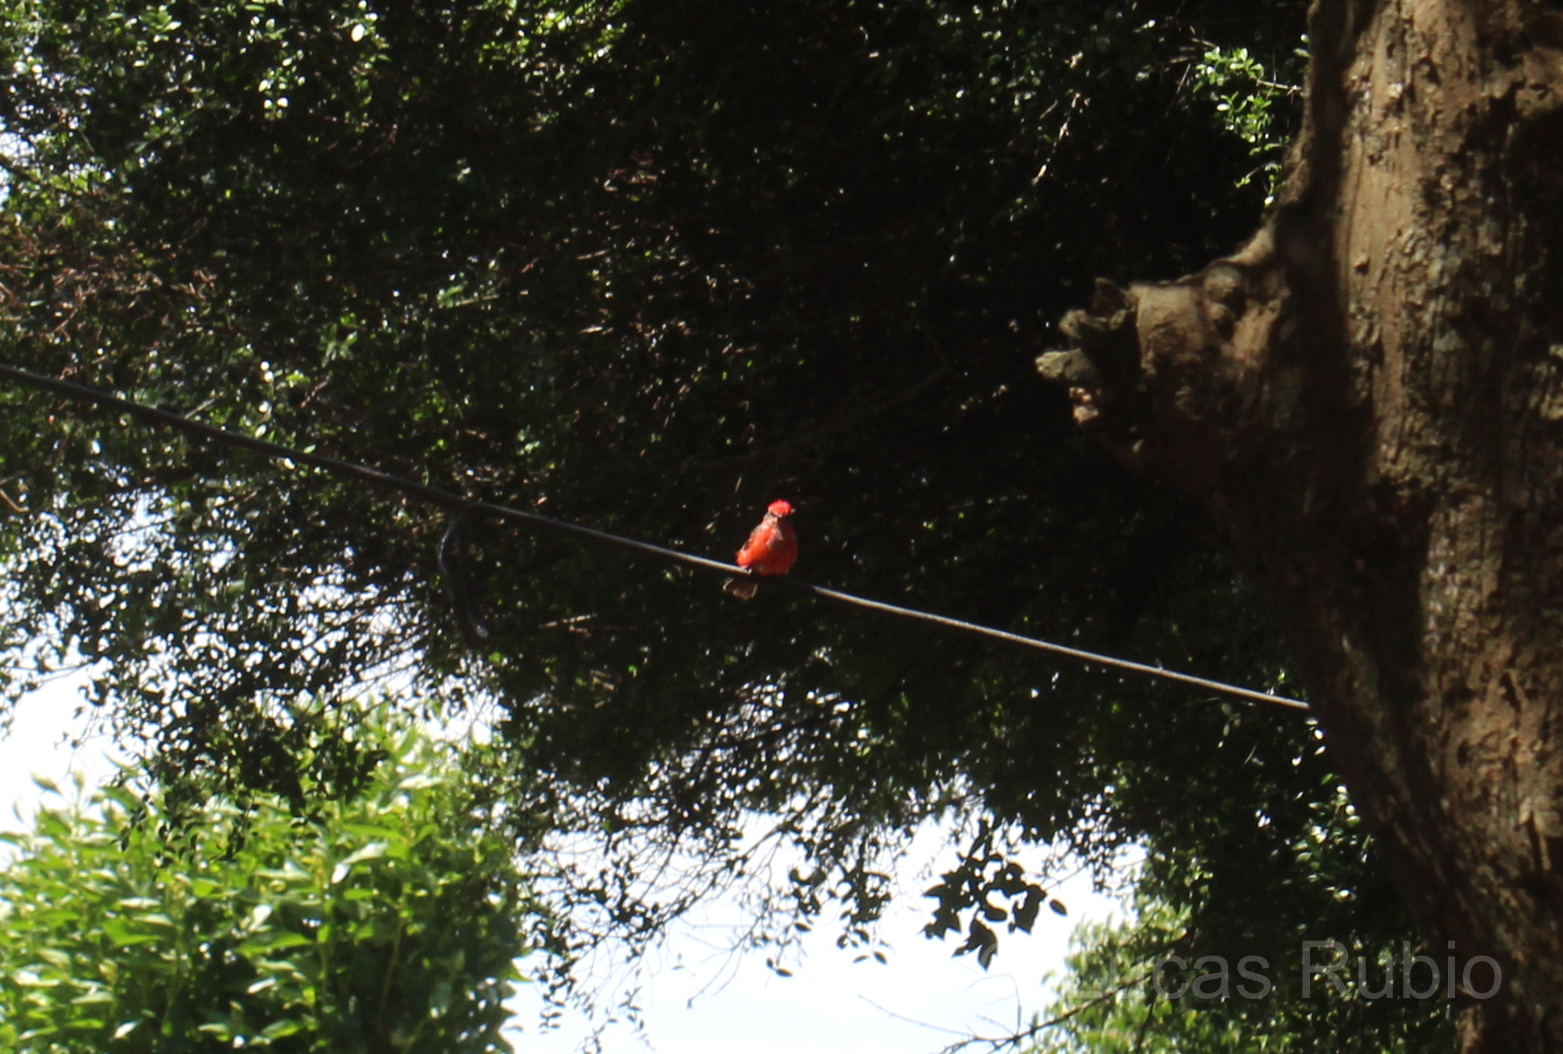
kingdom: Animalia
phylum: Chordata
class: Aves
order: Passeriformes
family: Tyrannidae
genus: Pyrocephalus
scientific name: Pyrocephalus rubinus
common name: Vermilion flycatcher
